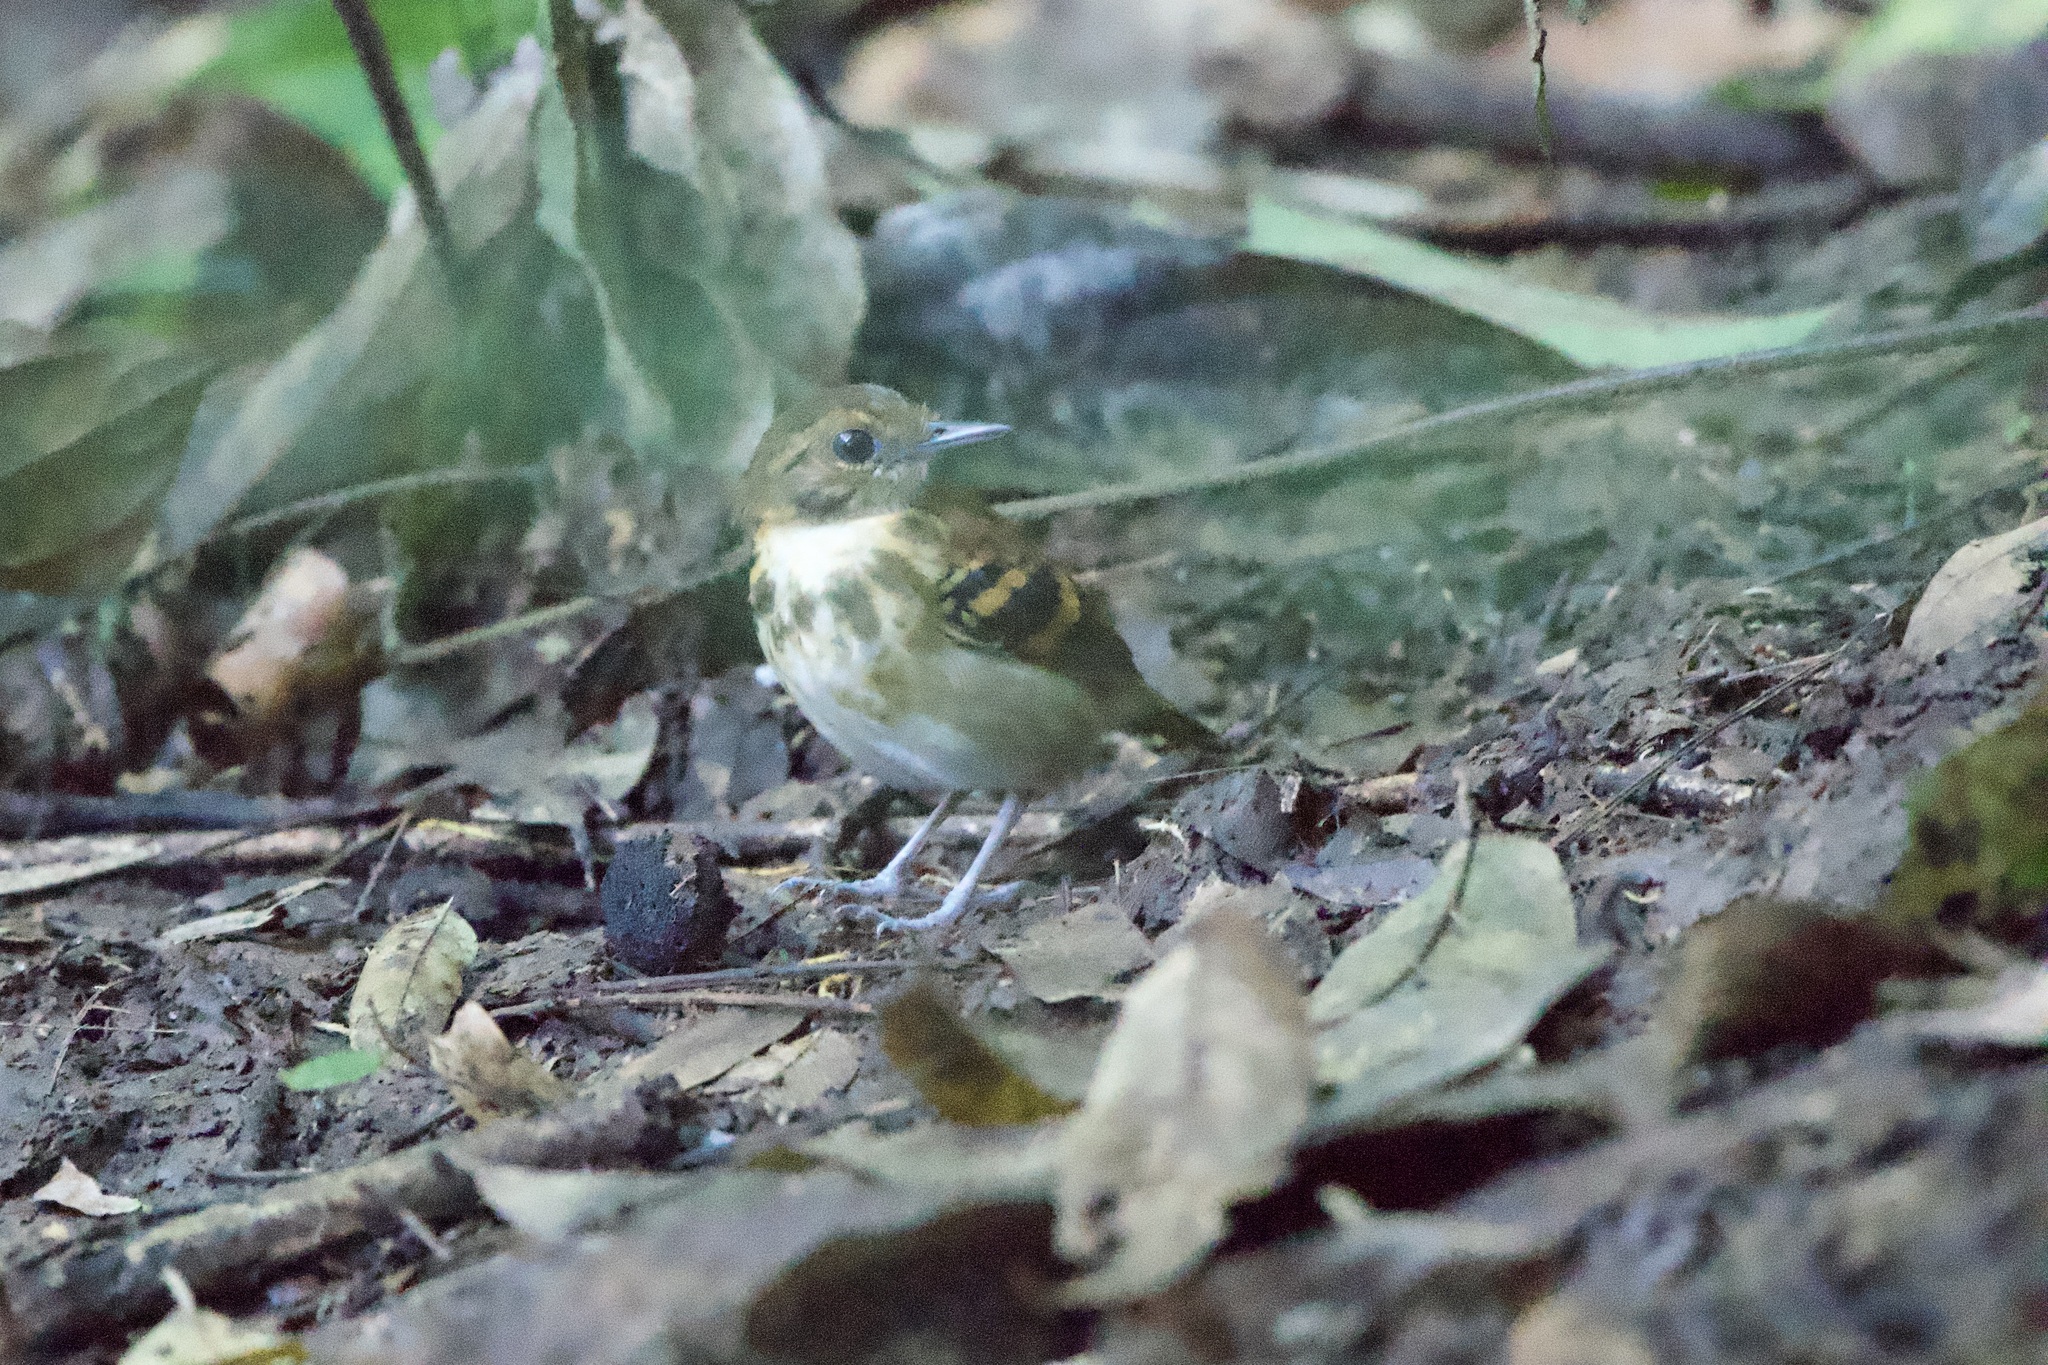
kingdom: Animalia
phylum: Chordata
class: Aves
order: Passeriformes
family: Thamnophilidae
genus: Hylophylax
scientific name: Hylophylax naevioides
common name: Spotted antbird
